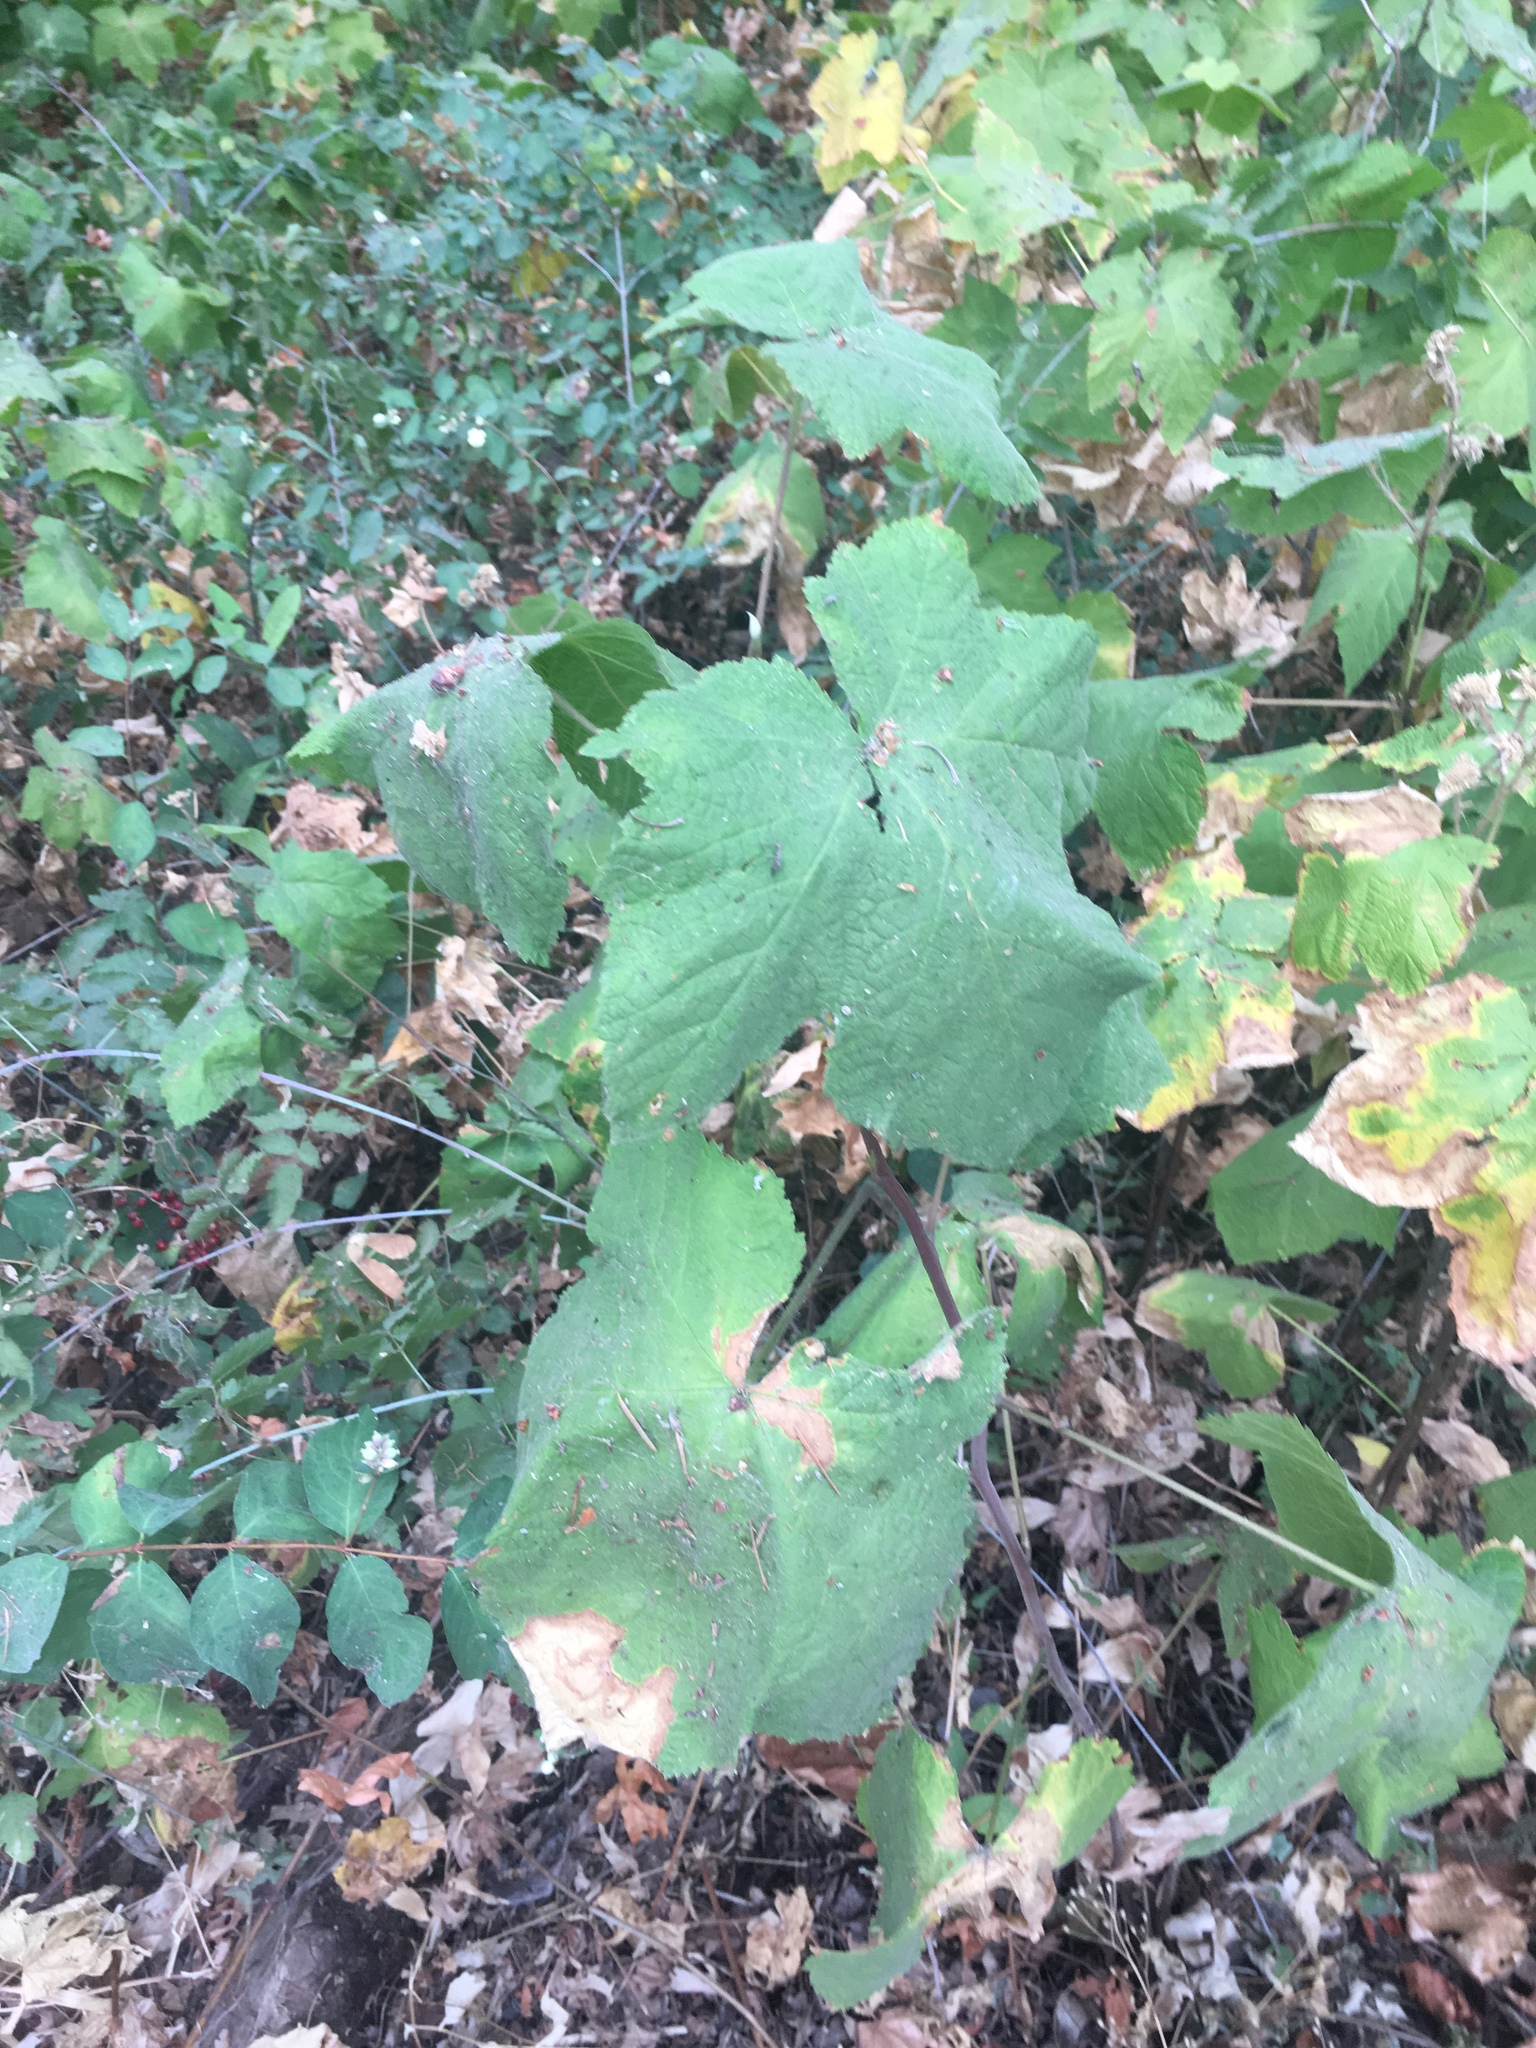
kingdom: Plantae
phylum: Tracheophyta
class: Magnoliopsida
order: Rosales
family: Rosaceae
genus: Rubus
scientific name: Rubus parviflorus
